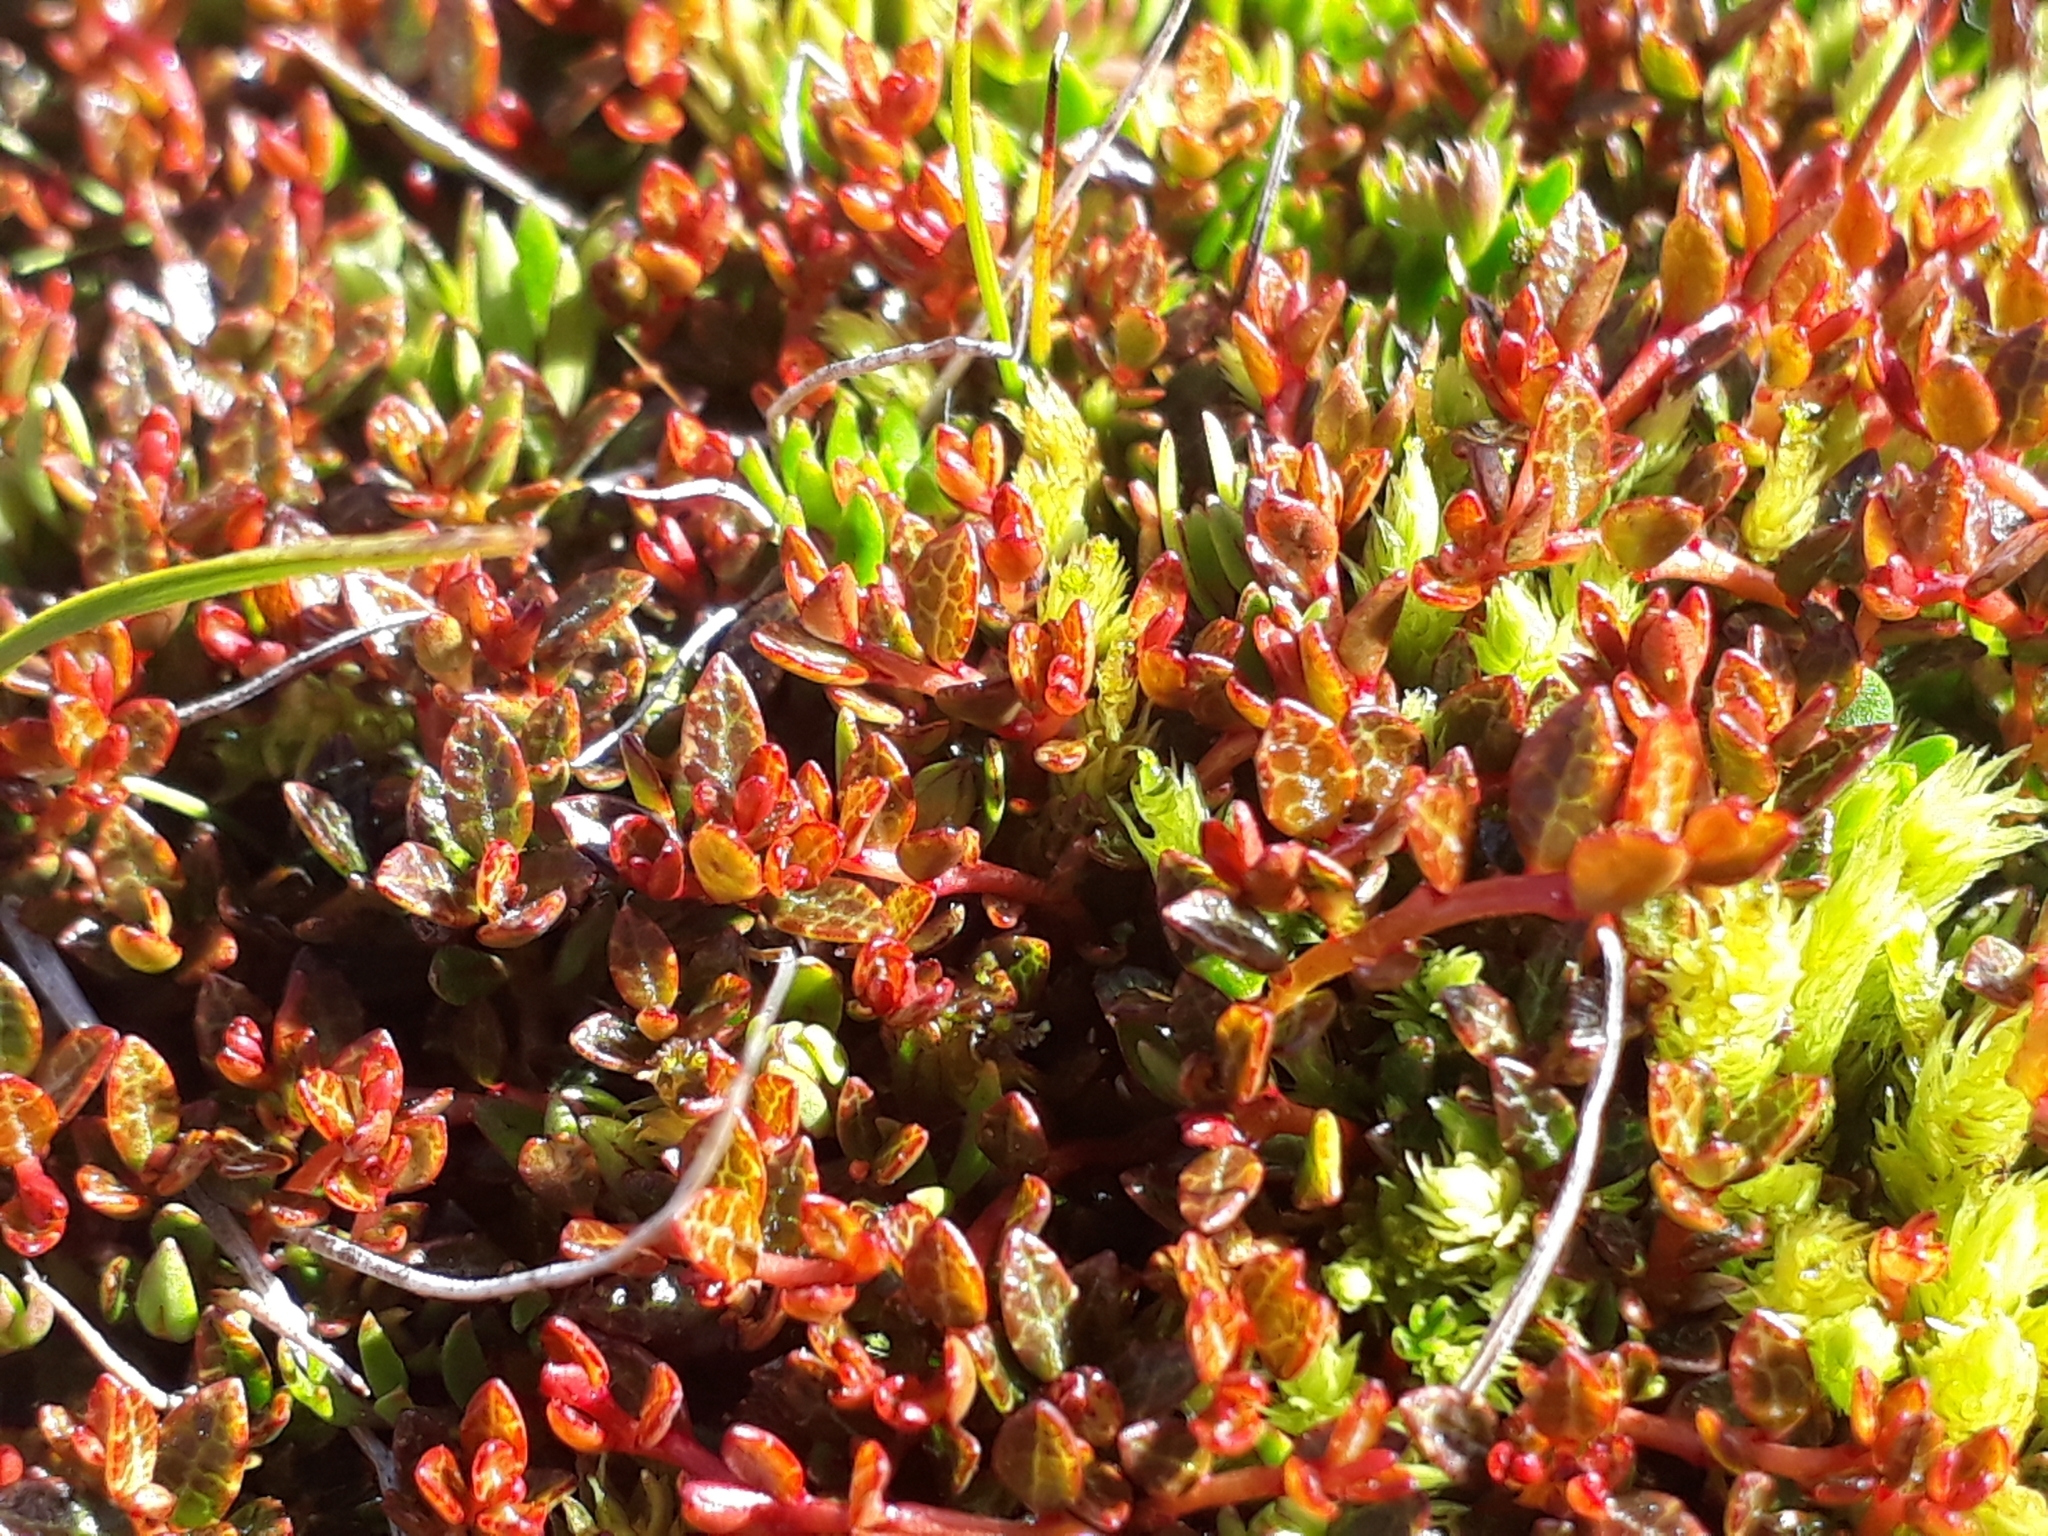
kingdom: Plantae
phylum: Tracheophyta
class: Magnoliopsida
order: Ericales
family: Ericaceae
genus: Gaultheria
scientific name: Gaultheria parvula
